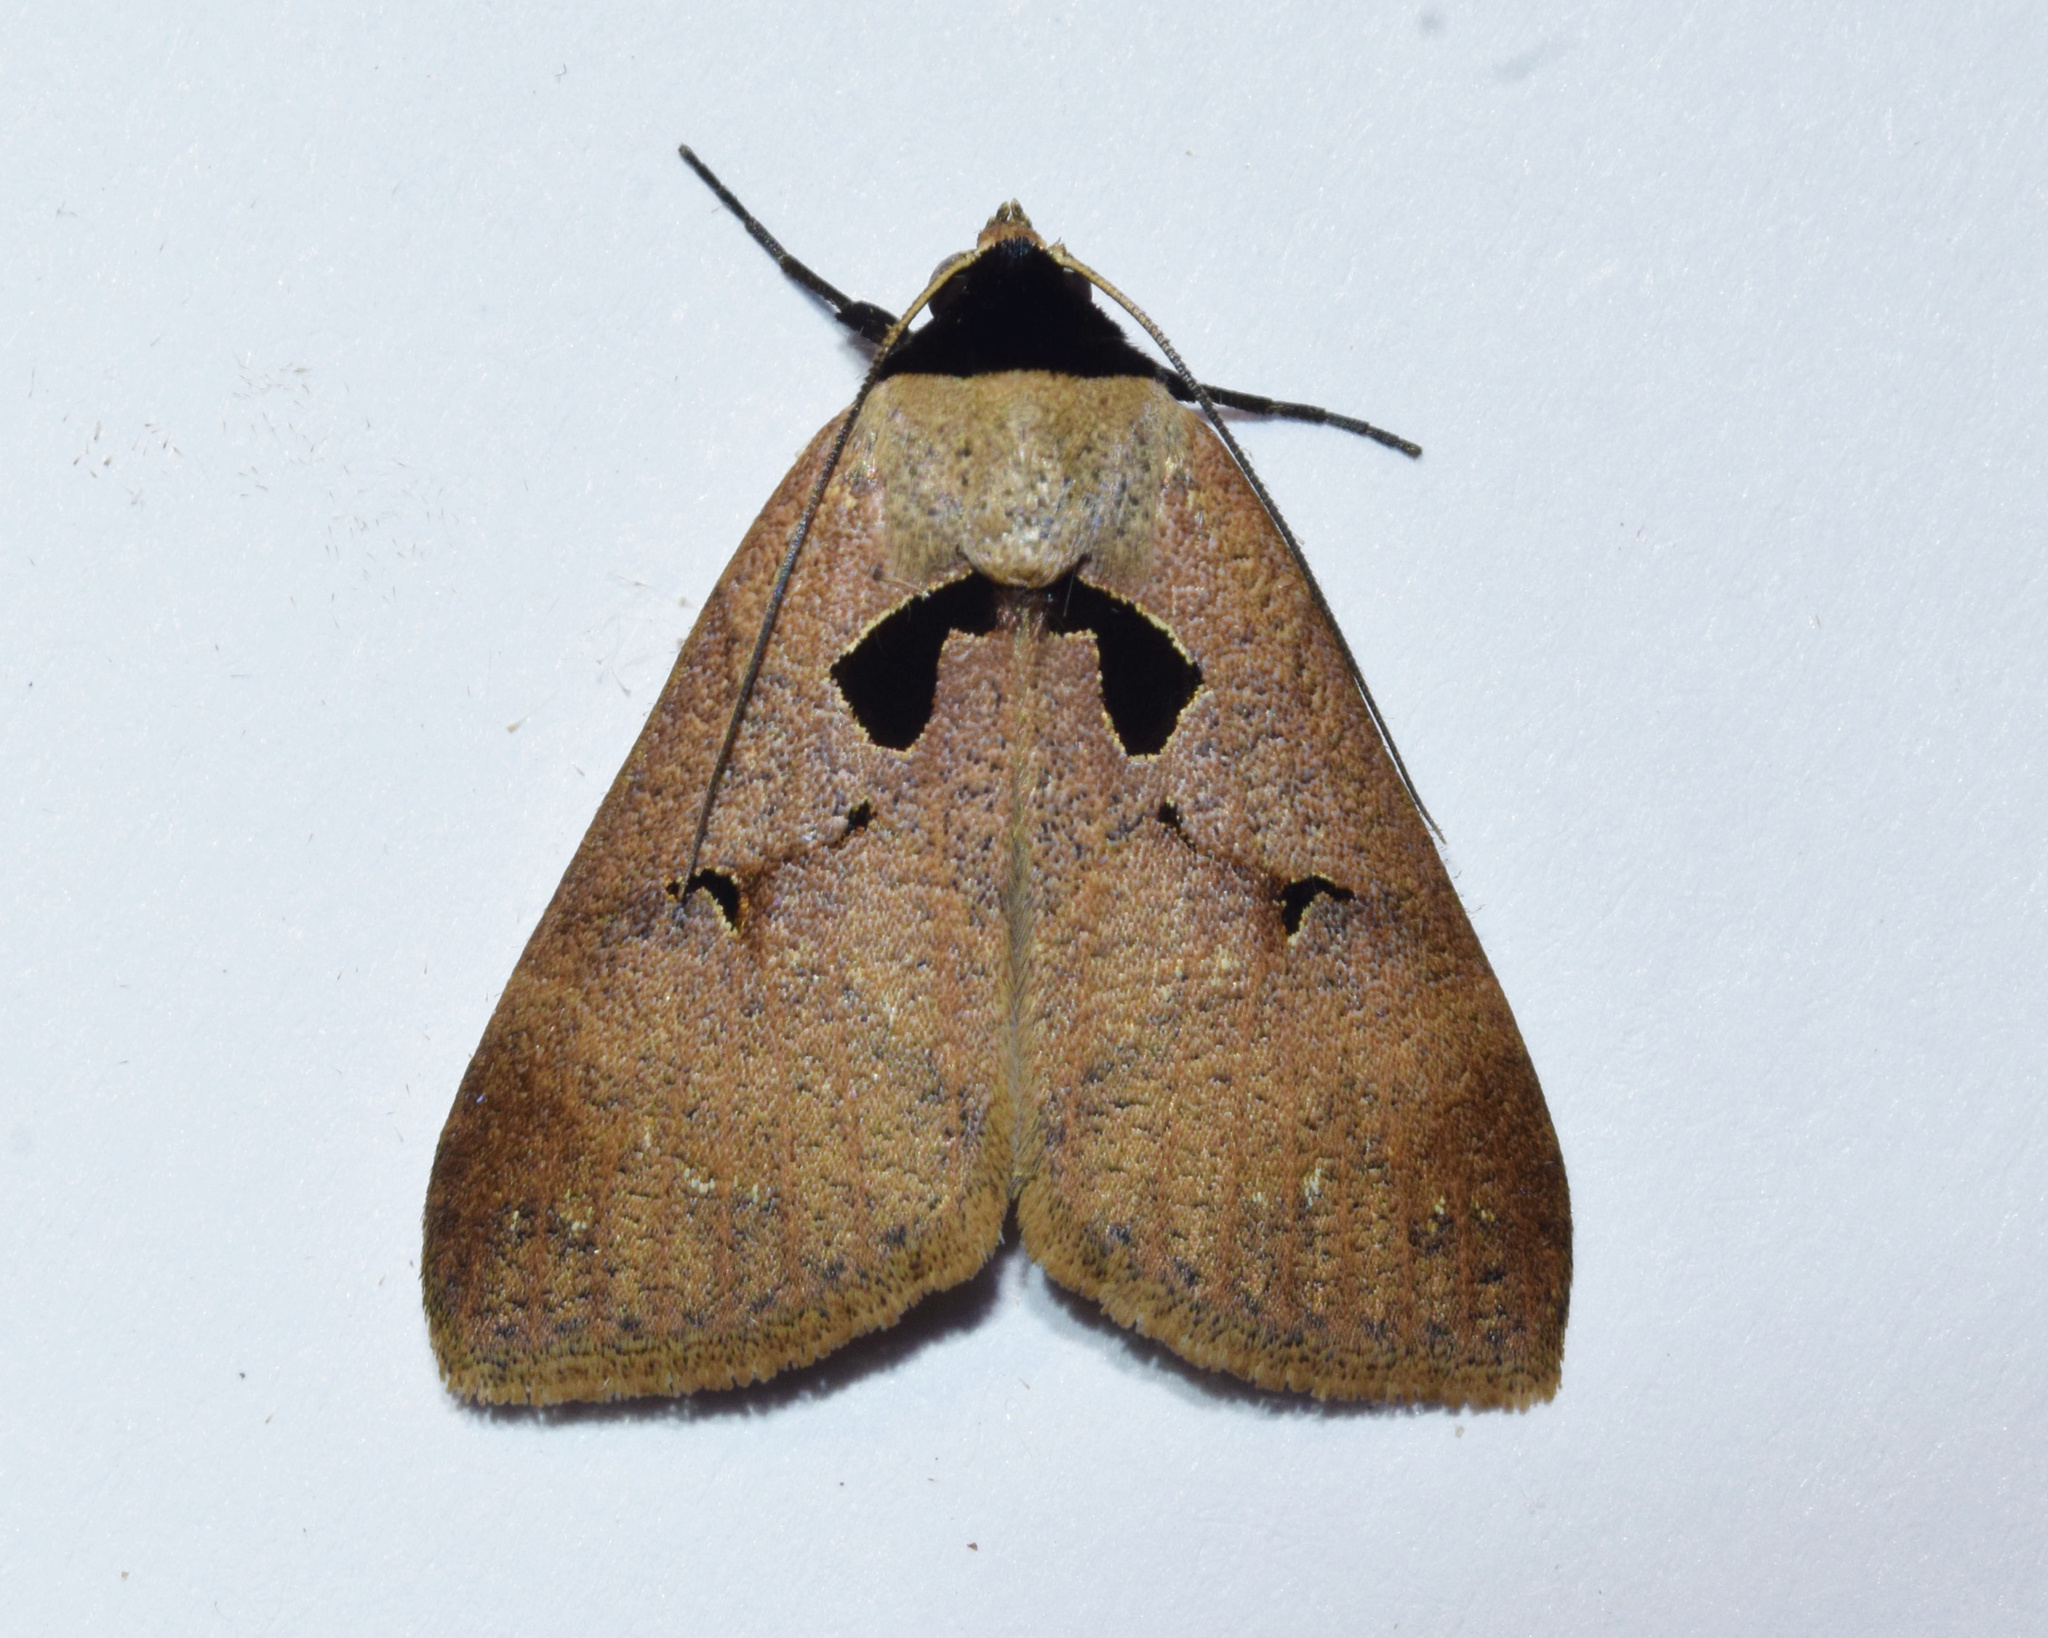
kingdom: Animalia
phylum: Arthropoda
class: Insecta
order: Lepidoptera
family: Erebidae
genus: Anoba
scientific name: Anoba atriplaga
